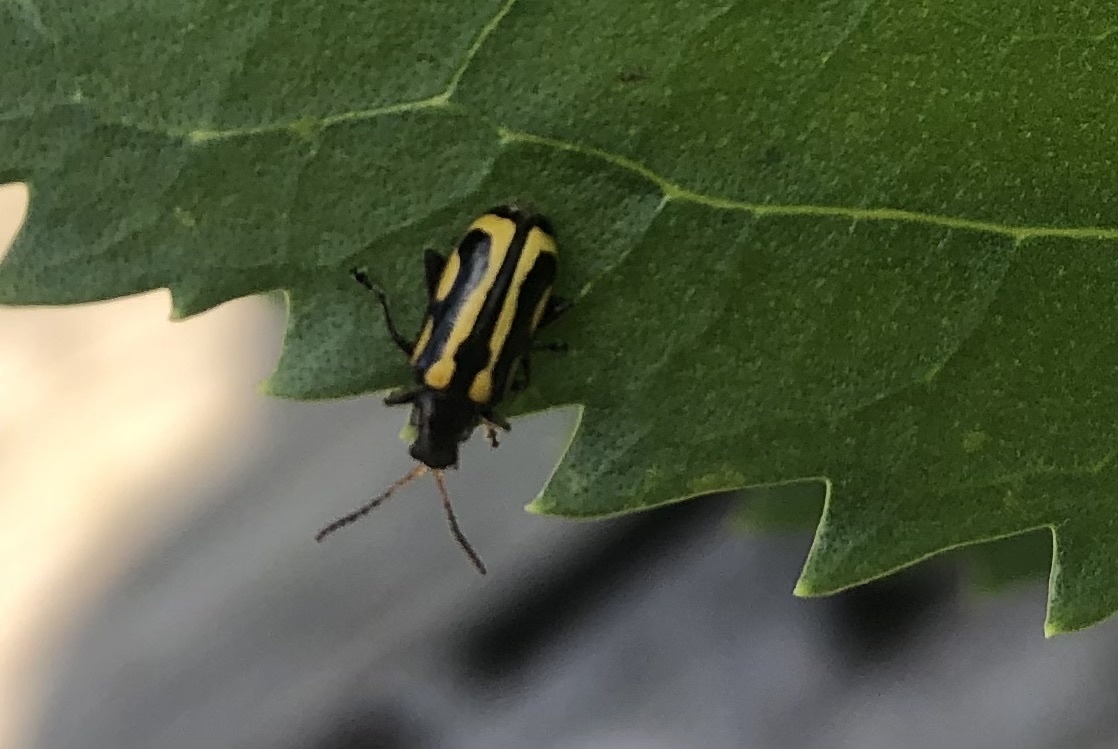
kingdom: Animalia
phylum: Arthropoda
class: Insecta
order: Coleoptera
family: Chrysomelidae
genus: Agasicles
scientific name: Agasicles hygrophila
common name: Alligatorweed flea beetle
